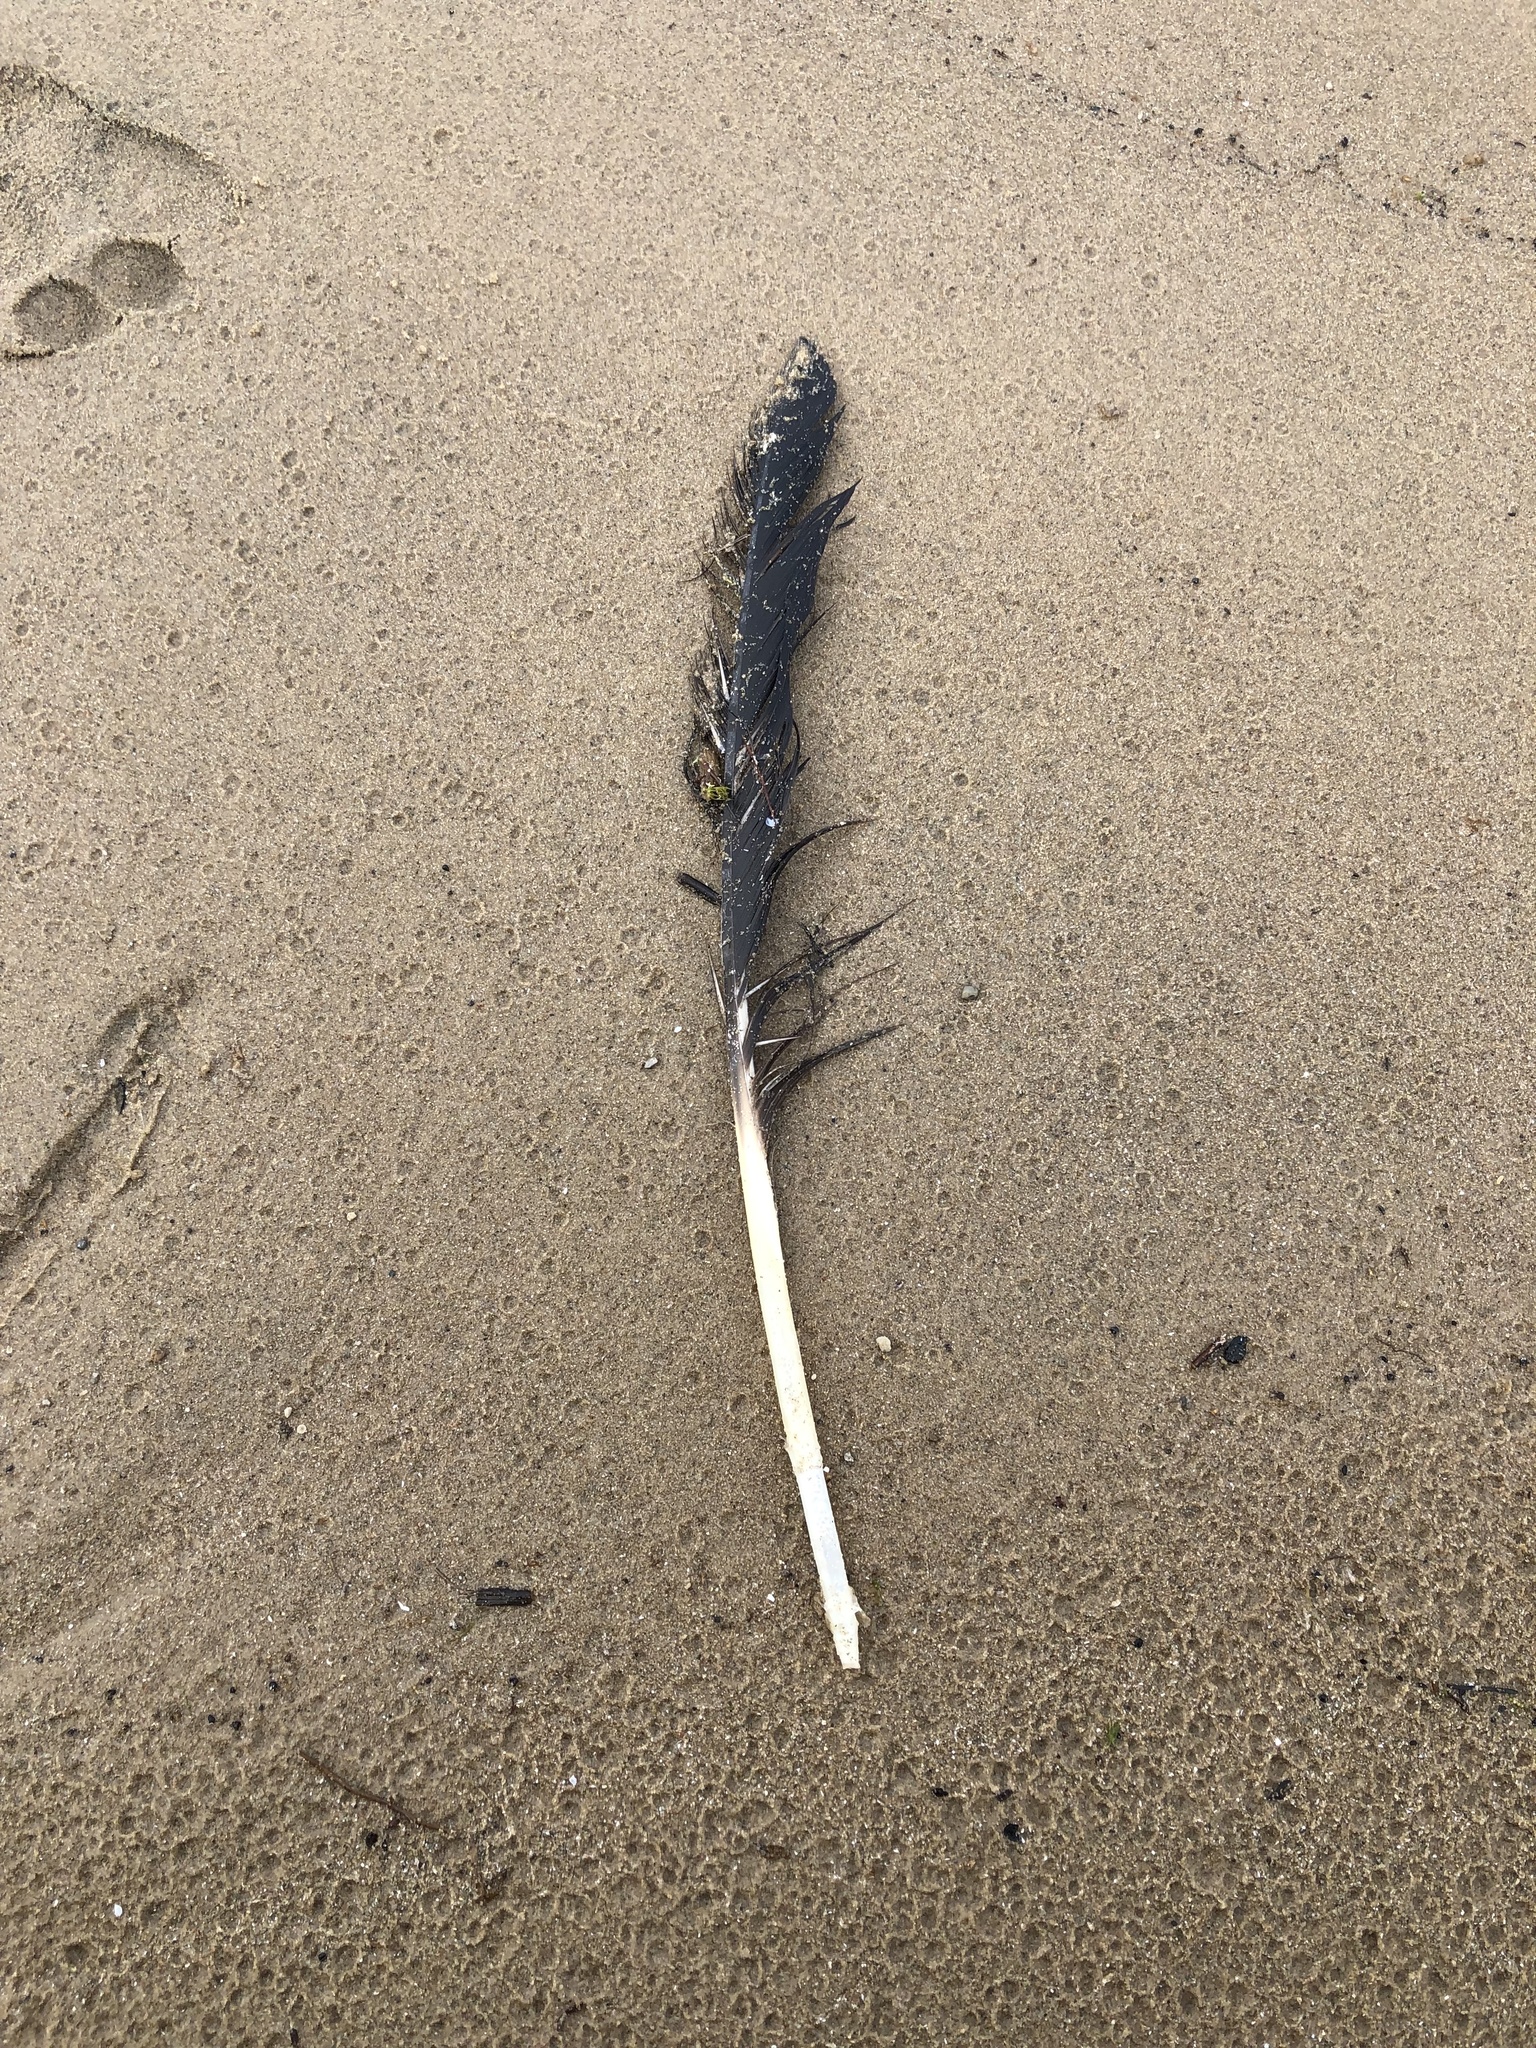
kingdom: Animalia
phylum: Chordata
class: Aves
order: Anseriformes
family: Anatidae
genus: Branta
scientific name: Branta canadensis
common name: Canada goose
